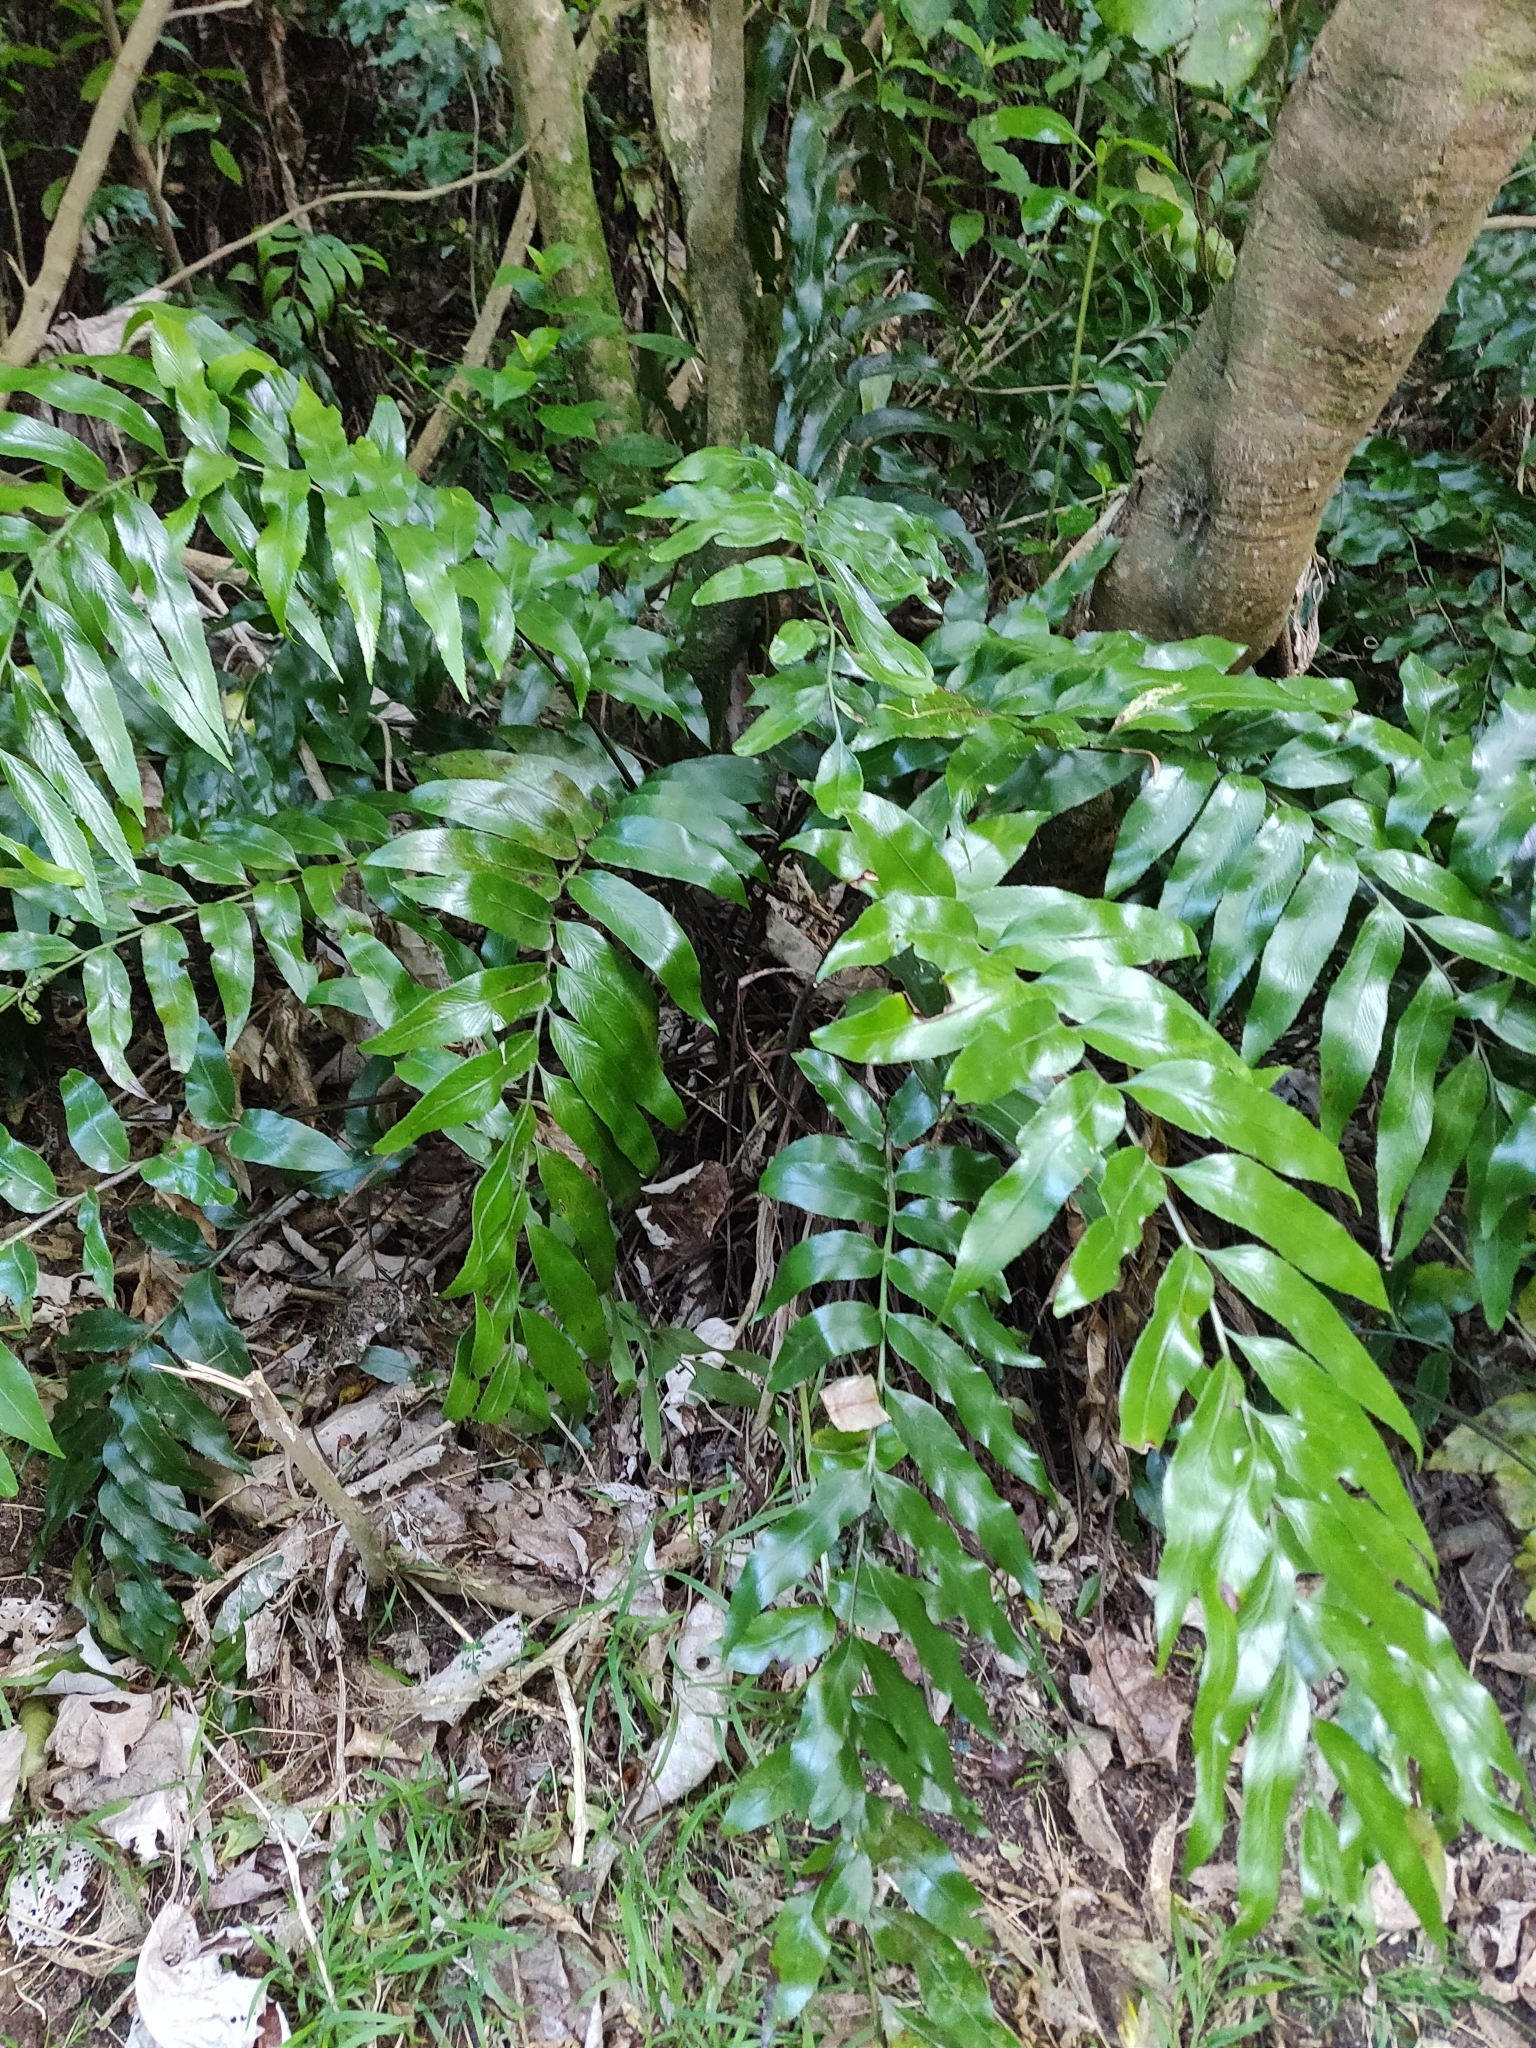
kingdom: Plantae
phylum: Tracheophyta
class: Polypodiopsida
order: Polypodiales
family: Aspleniaceae
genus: Asplenium
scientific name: Asplenium oblongifolium
